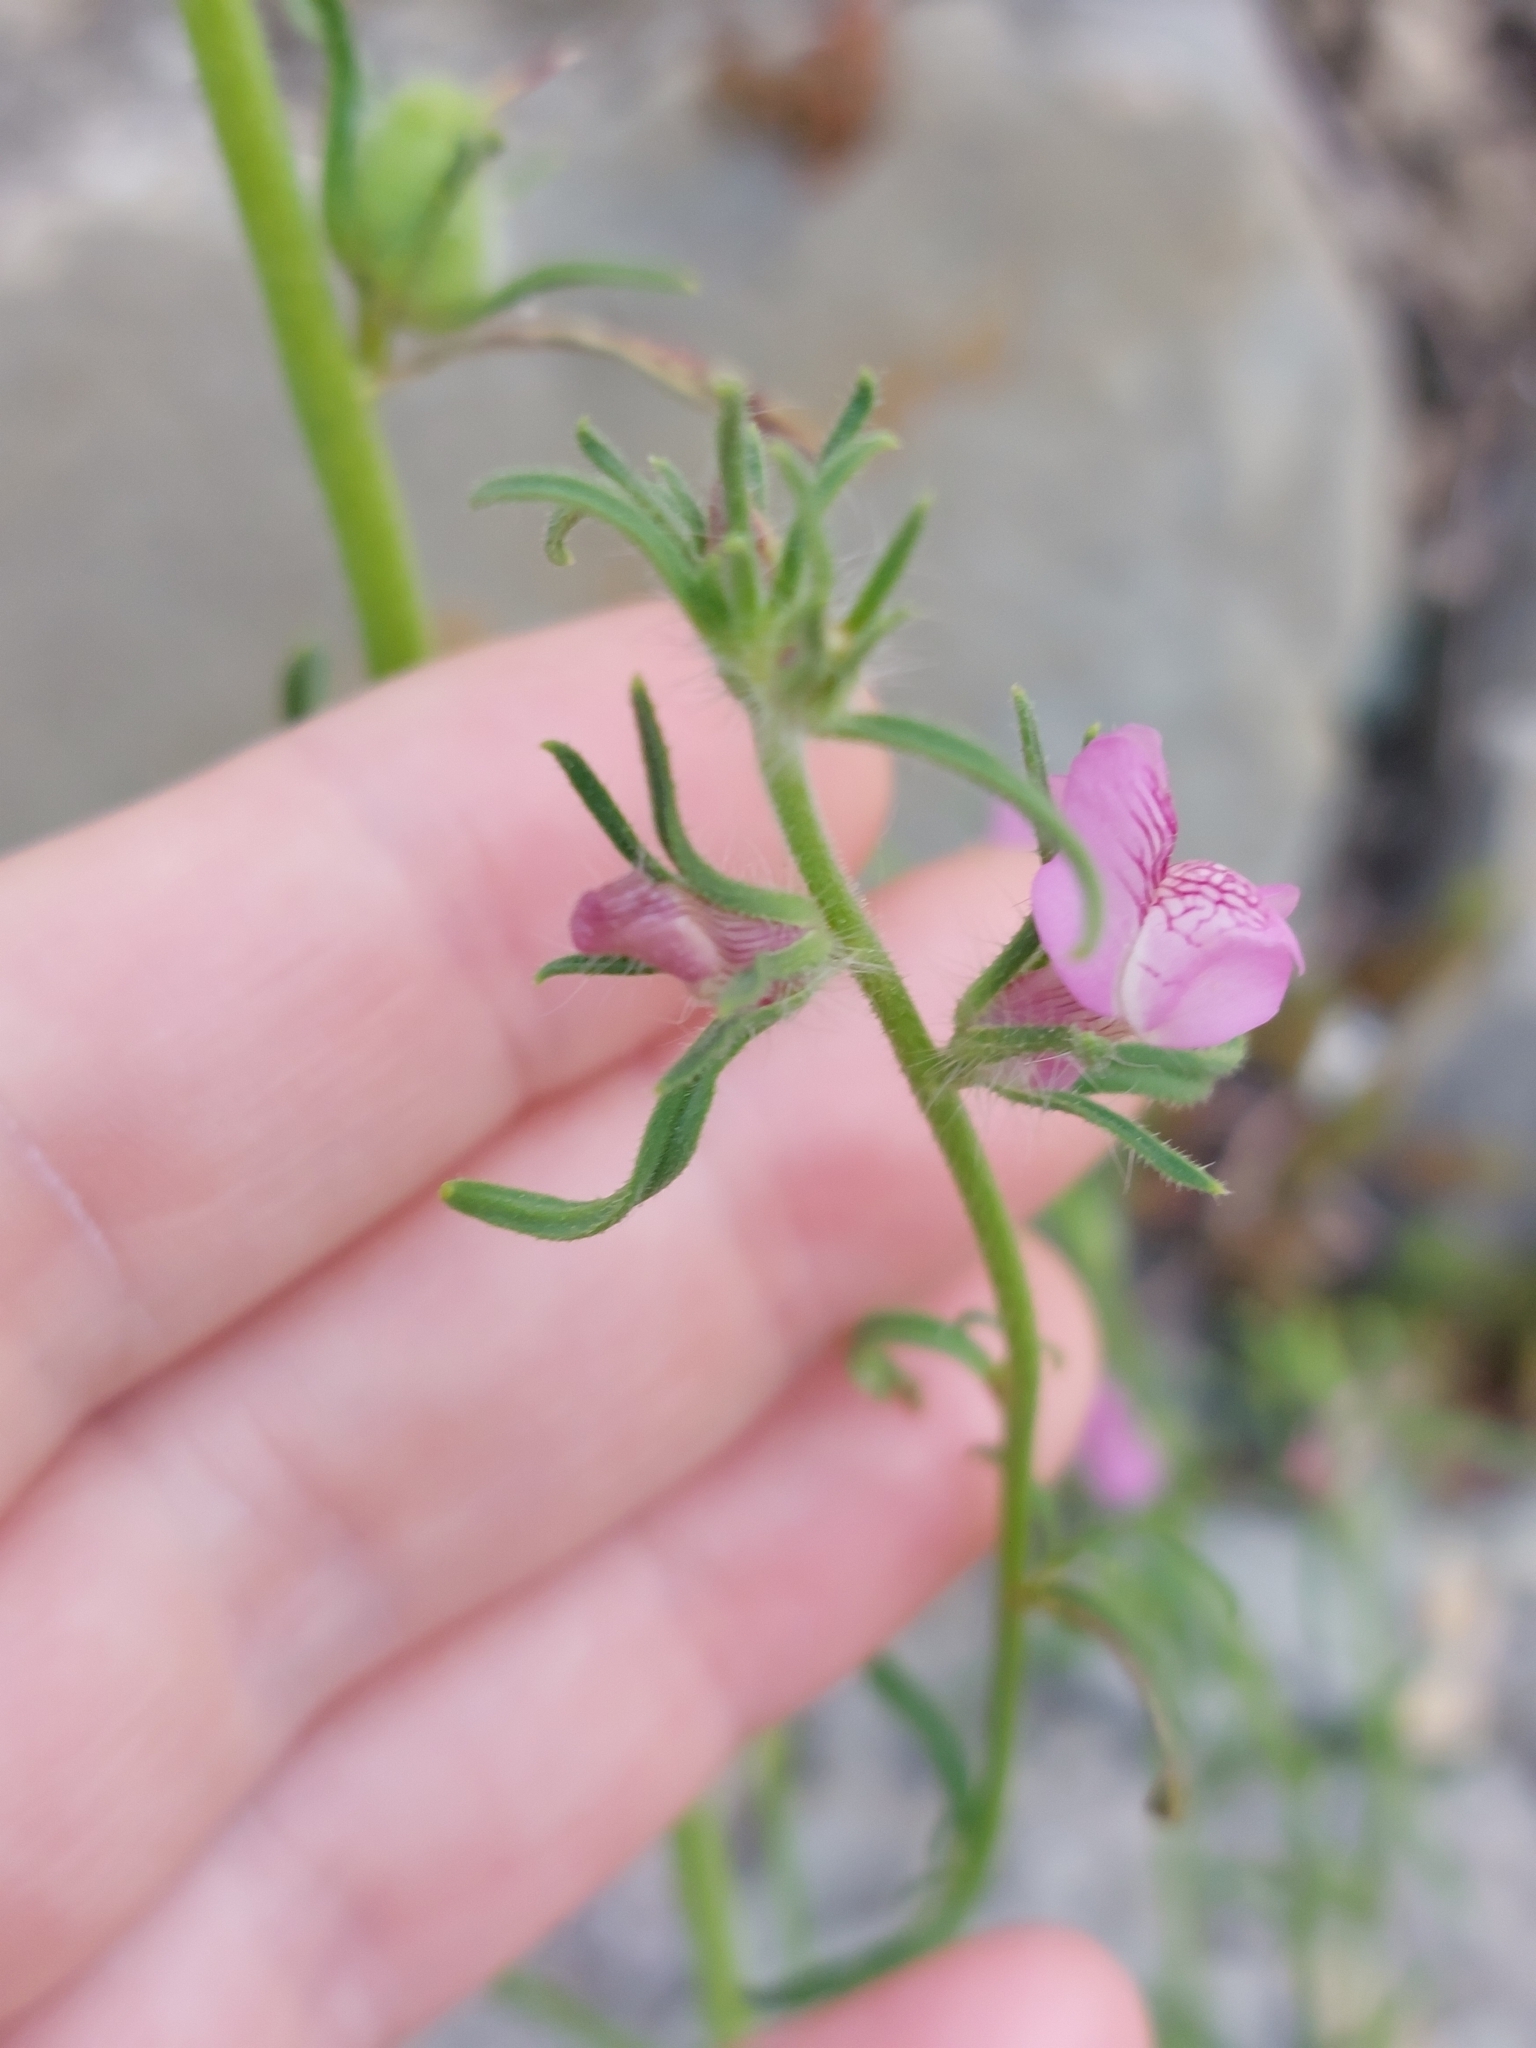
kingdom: Plantae
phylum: Tracheophyta
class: Magnoliopsida
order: Lamiales
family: Plantaginaceae
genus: Misopates
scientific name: Misopates orontium
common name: Weasel's-snout
